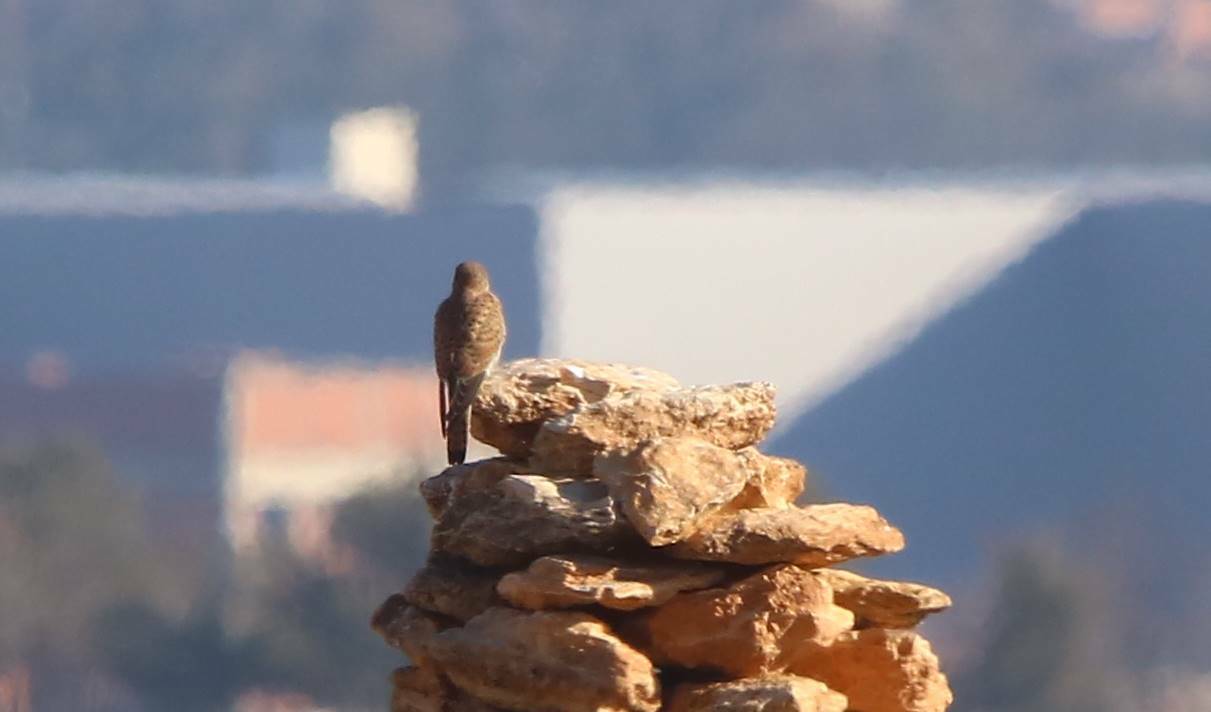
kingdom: Animalia
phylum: Chordata
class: Aves
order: Falconiformes
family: Falconidae
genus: Falco
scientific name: Falco tinnunculus
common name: Common kestrel
